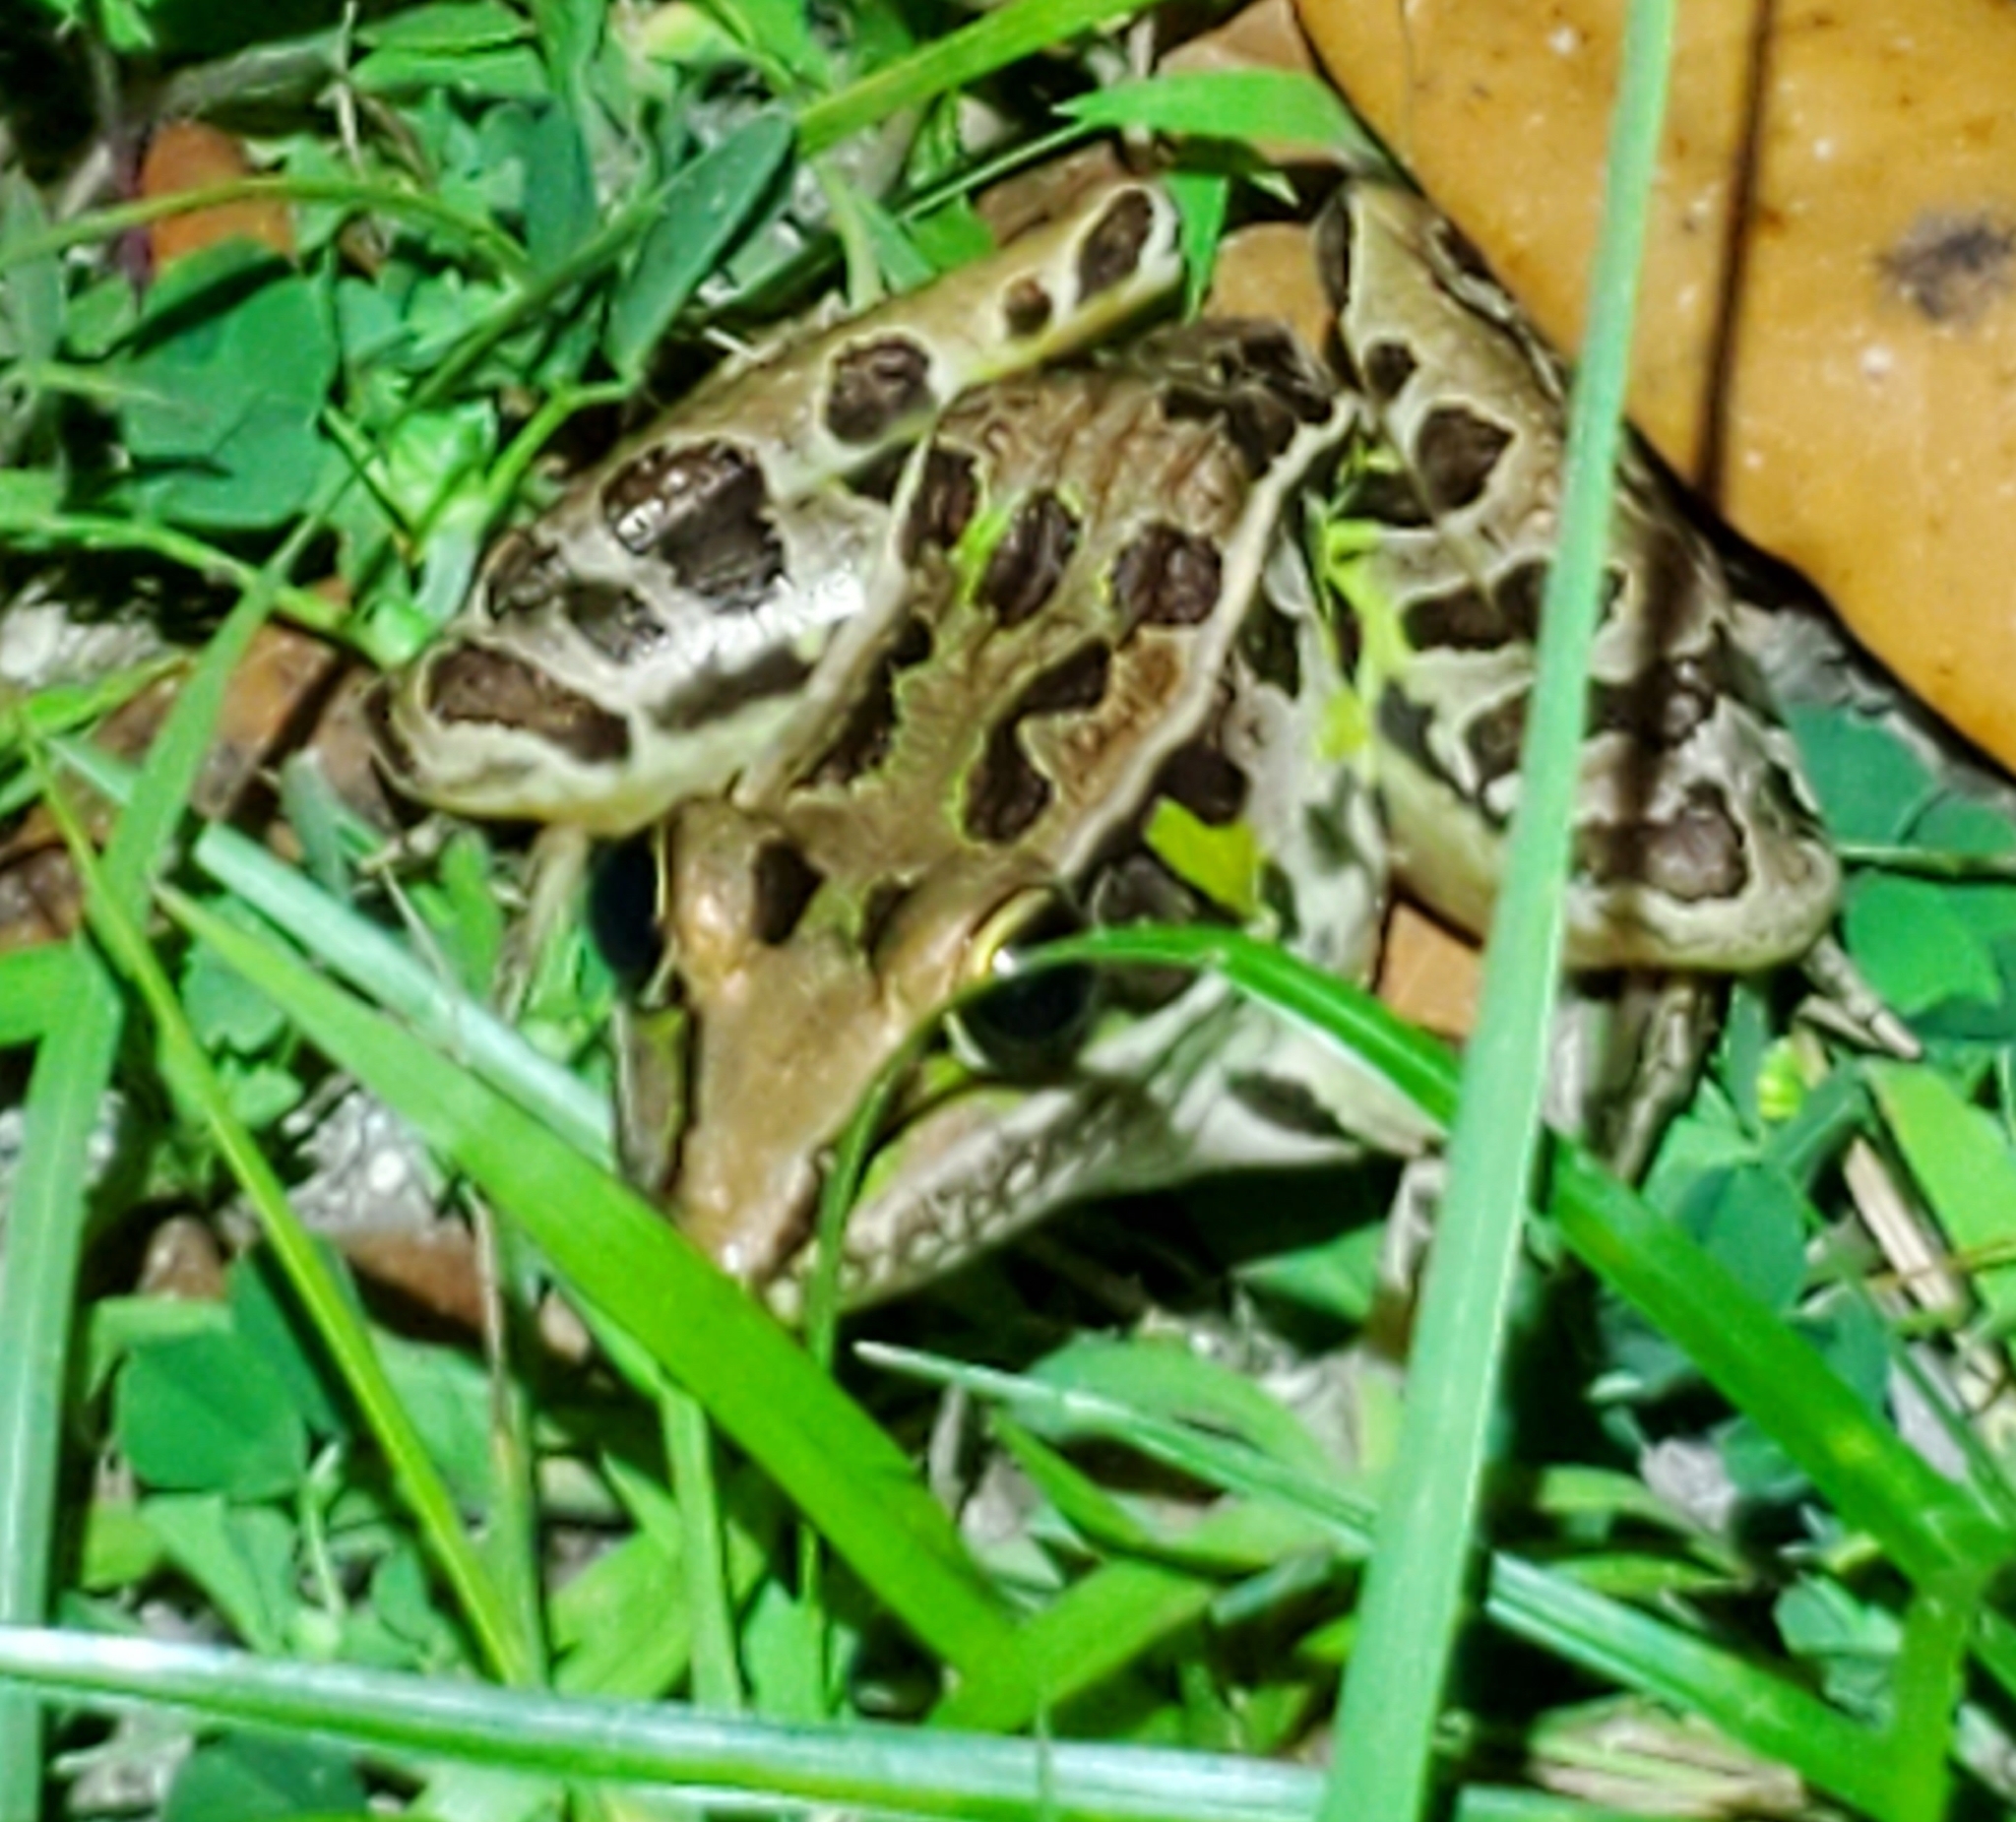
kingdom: Animalia
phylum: Chordata
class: Amphibia
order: Anura
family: Ranidae
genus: Lithobates
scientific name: Lithobates sphenocephalus
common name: Southern leopard frog
